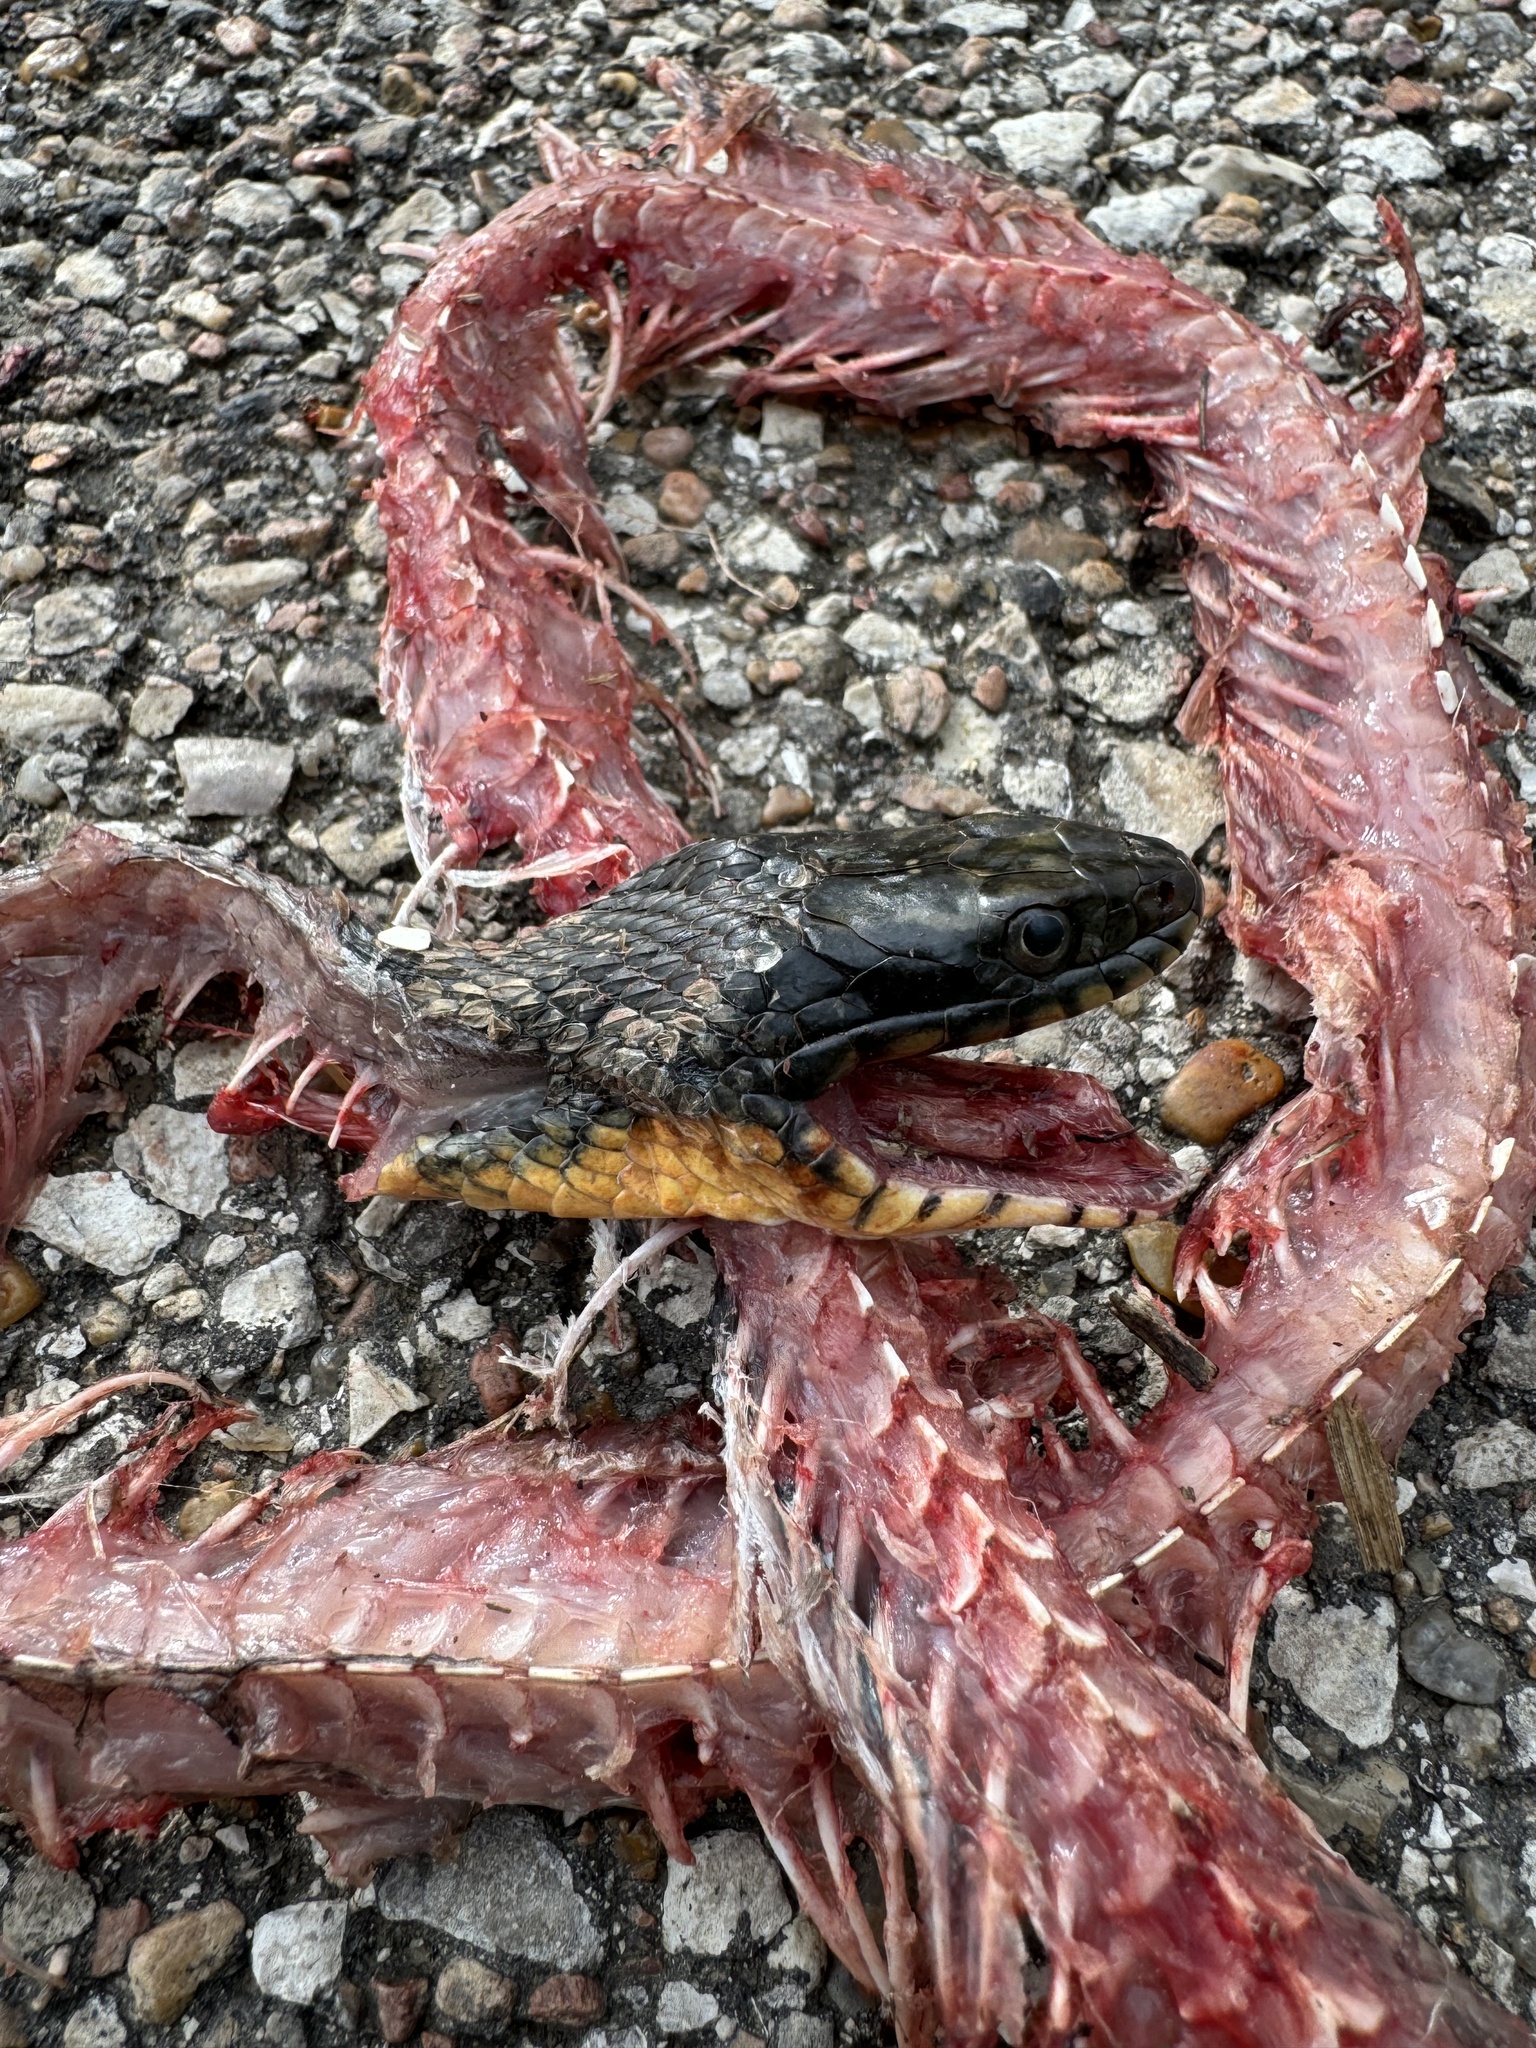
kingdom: Animalia
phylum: Chordata
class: Squamata
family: Colubridae
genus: Nerodia
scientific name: Nerodia erythrogaster
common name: Plainbelly water snake
